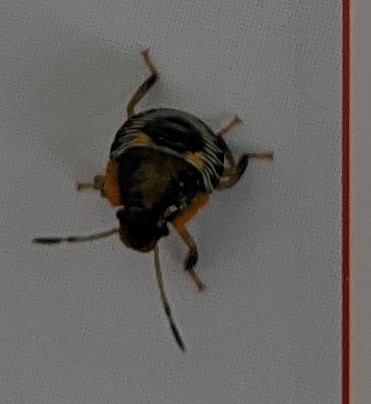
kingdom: Animalia
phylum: Arthropoda
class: Insecta
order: Hemiptera
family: Pentatomidae
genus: Chinavia
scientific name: Chinavia hilaris
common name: Green stink bug
